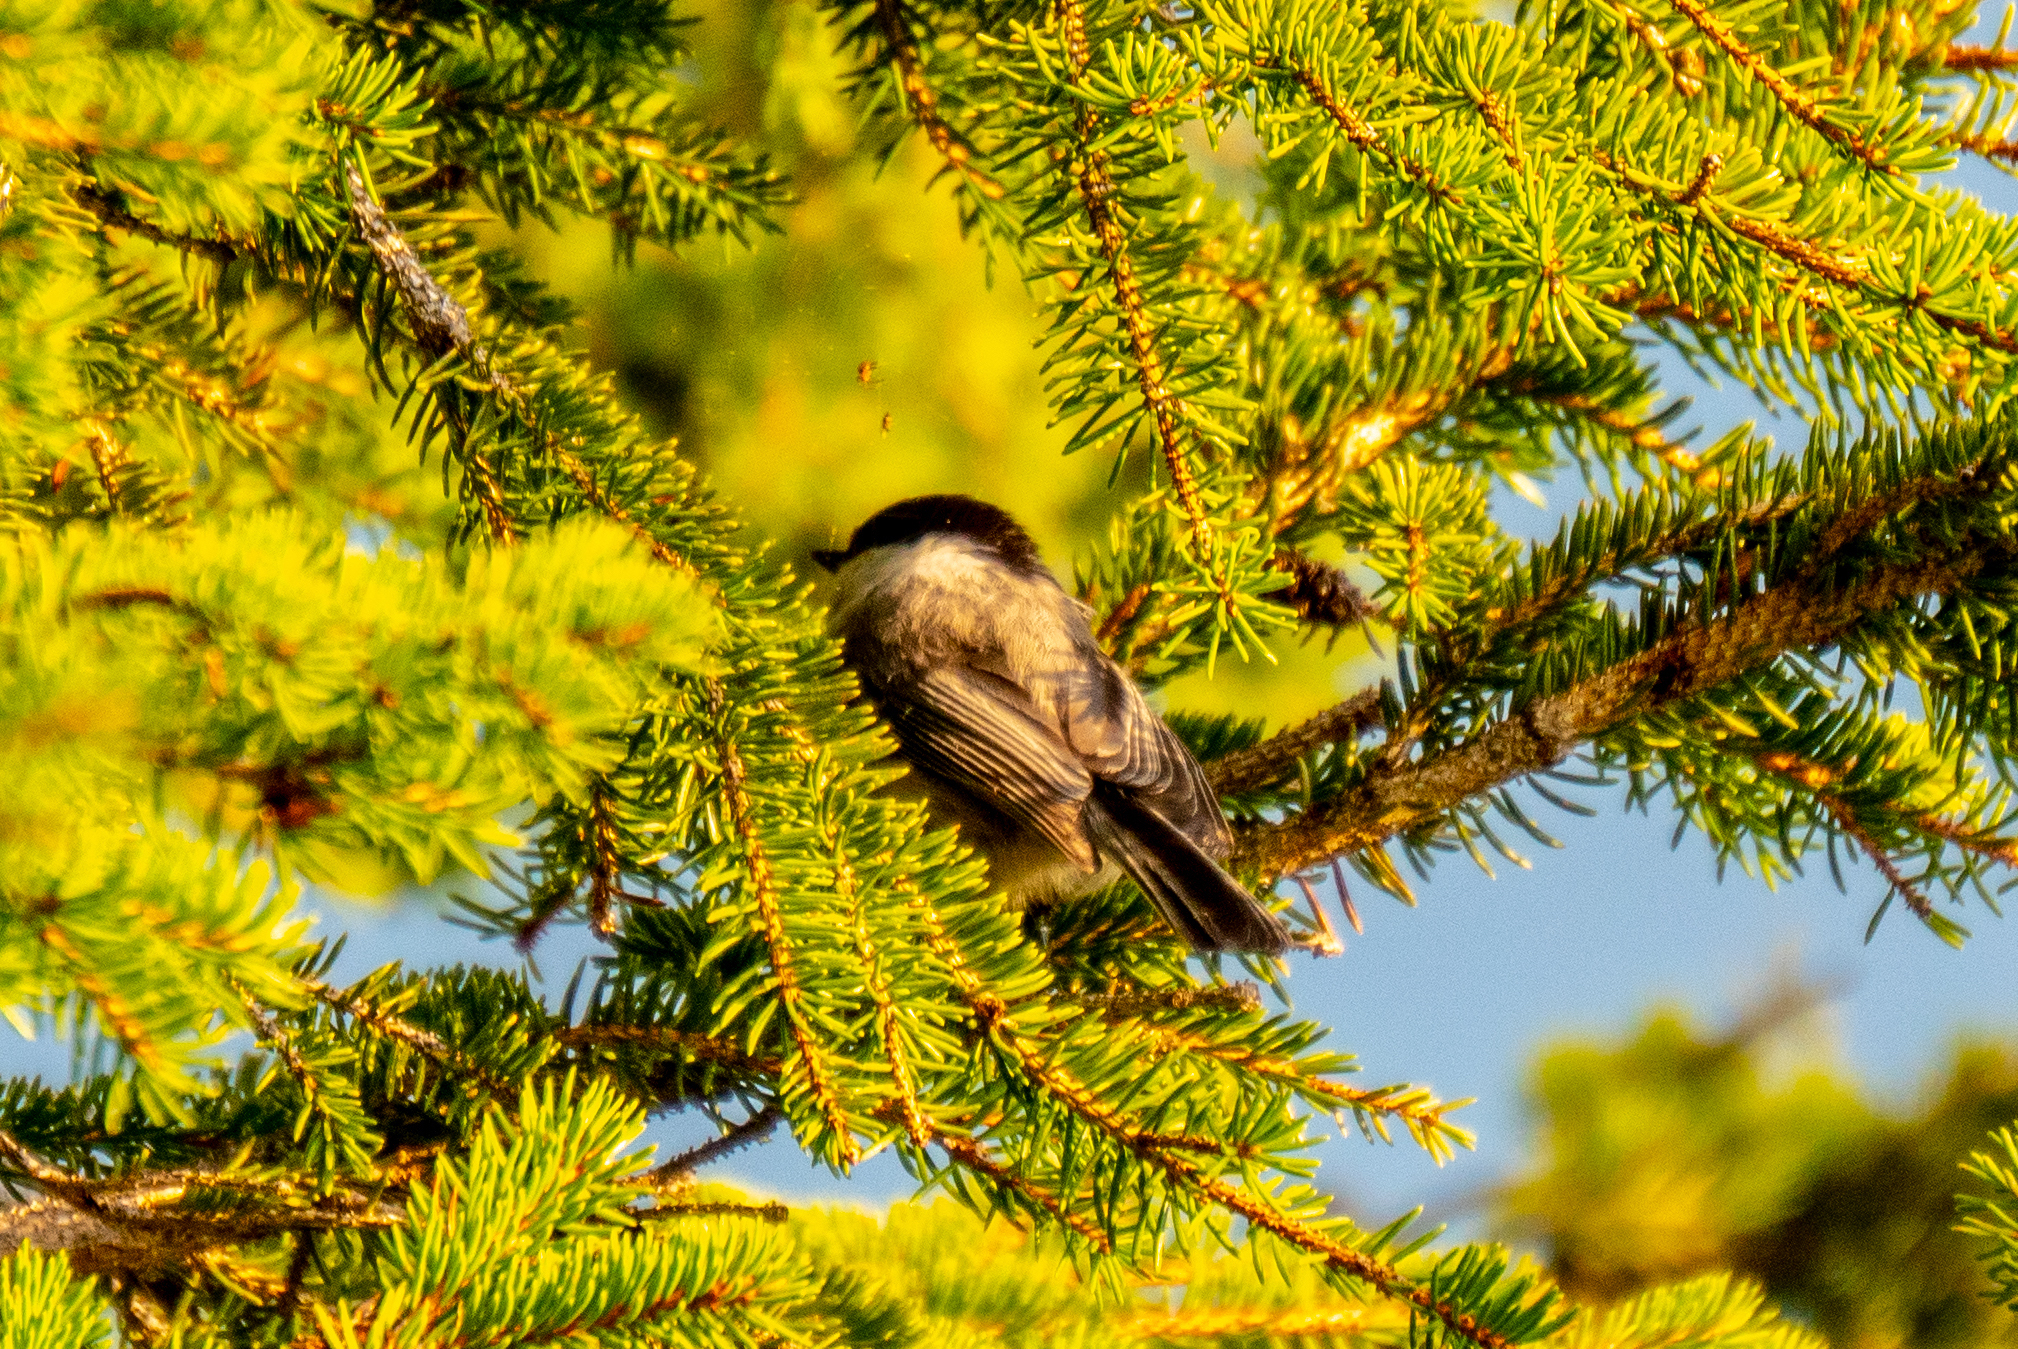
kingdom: Animalia
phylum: Chordata
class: Aves
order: Passeriformes
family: Paridae
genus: Poecile
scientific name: Poecile montanus
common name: Willow tit
